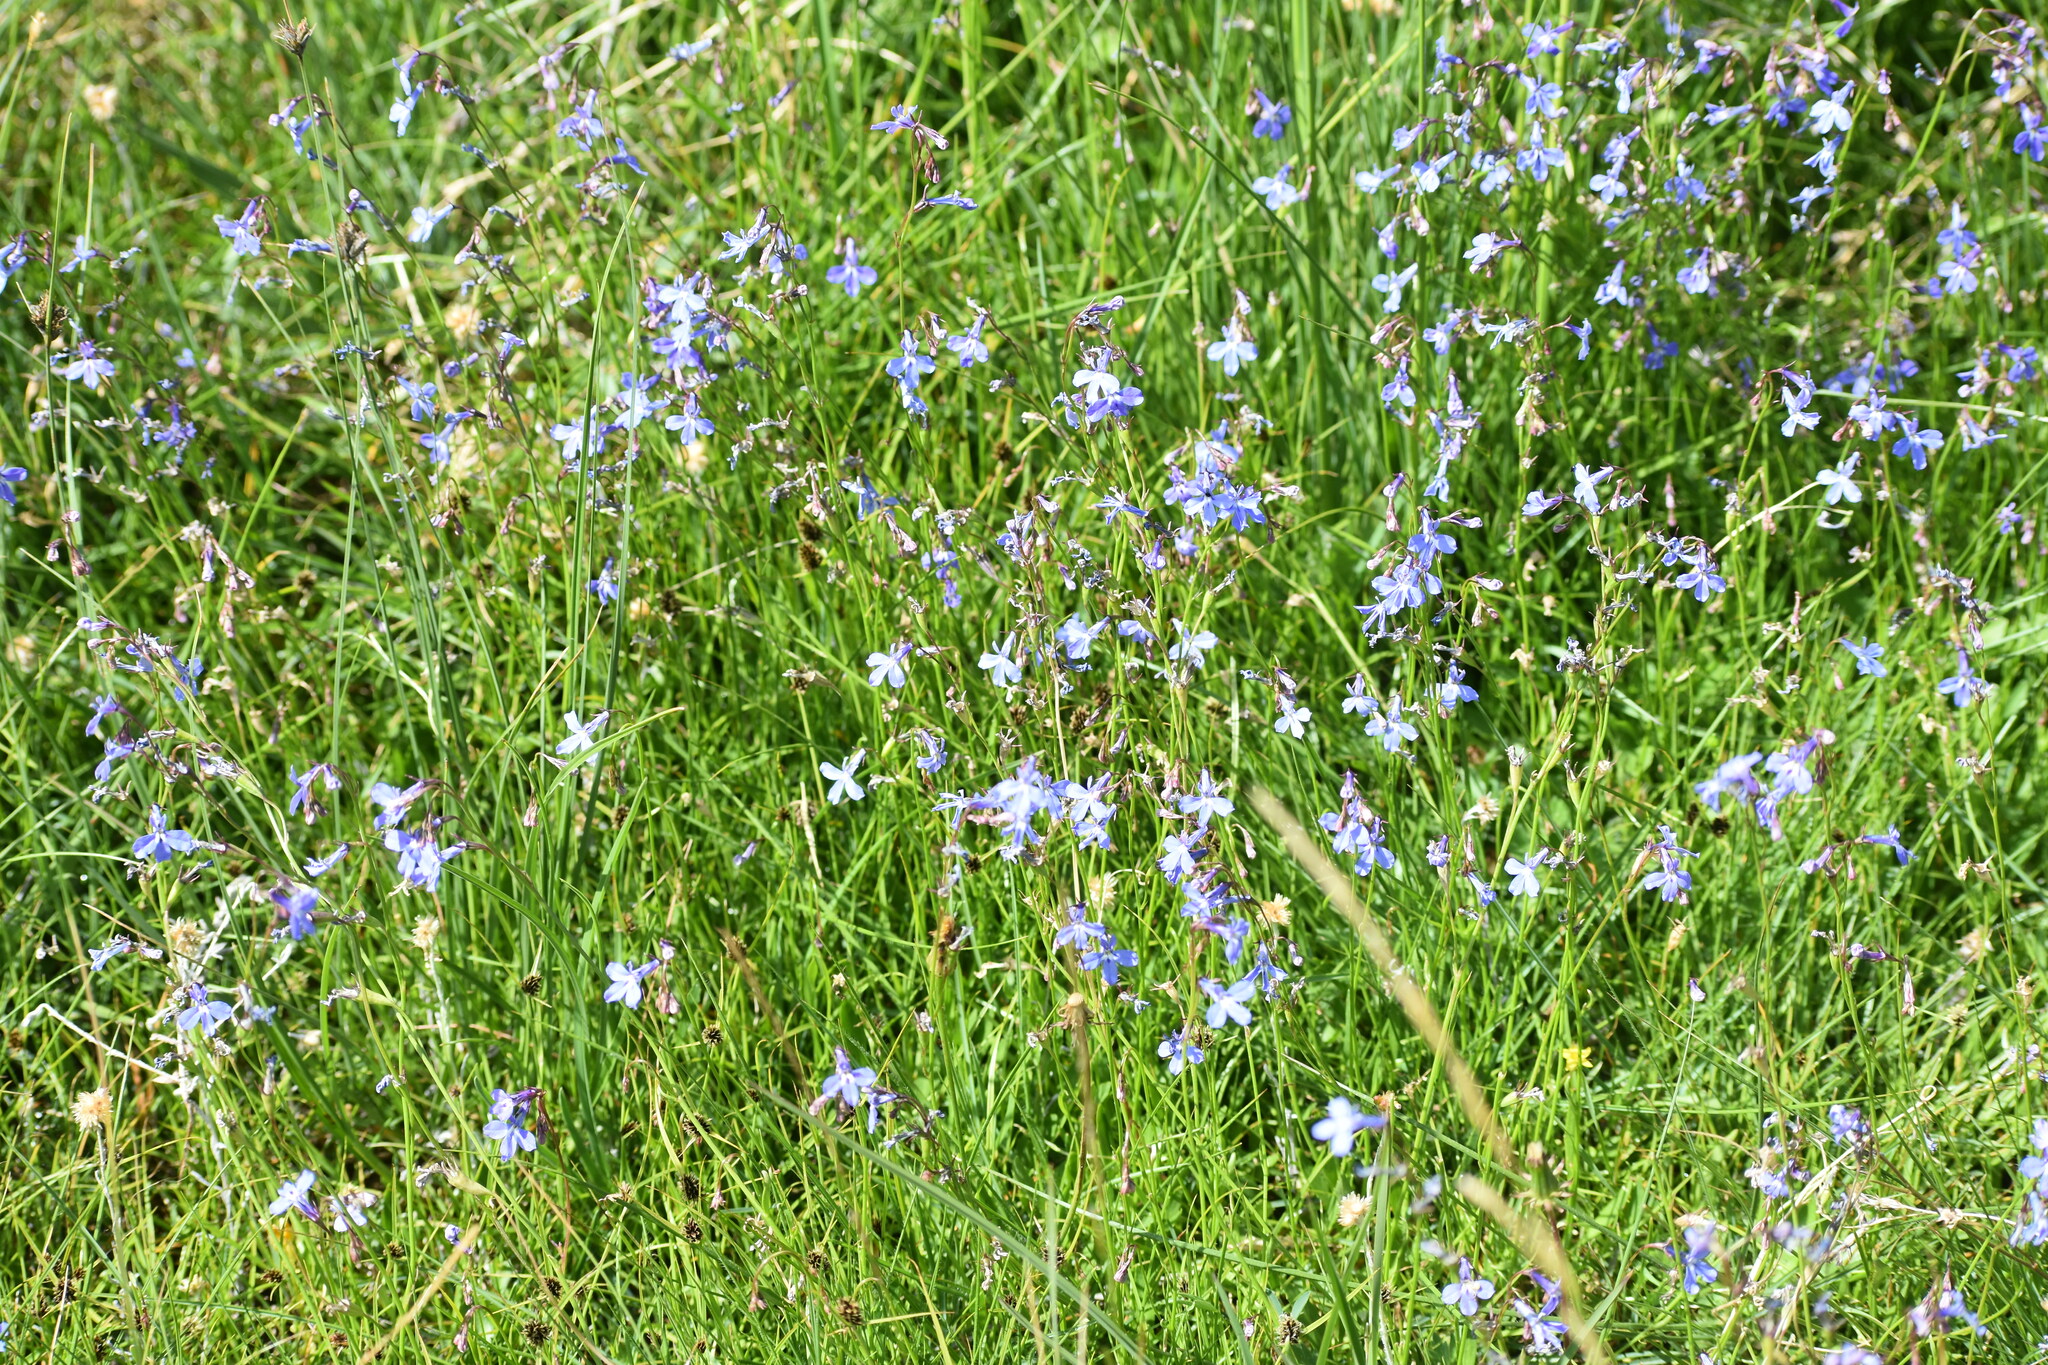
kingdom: Plantae
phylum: Tracheophyta
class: Magnoliopsida
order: Asterales
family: Campanulaceae
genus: Lobelia
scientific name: Lobelia laxa
